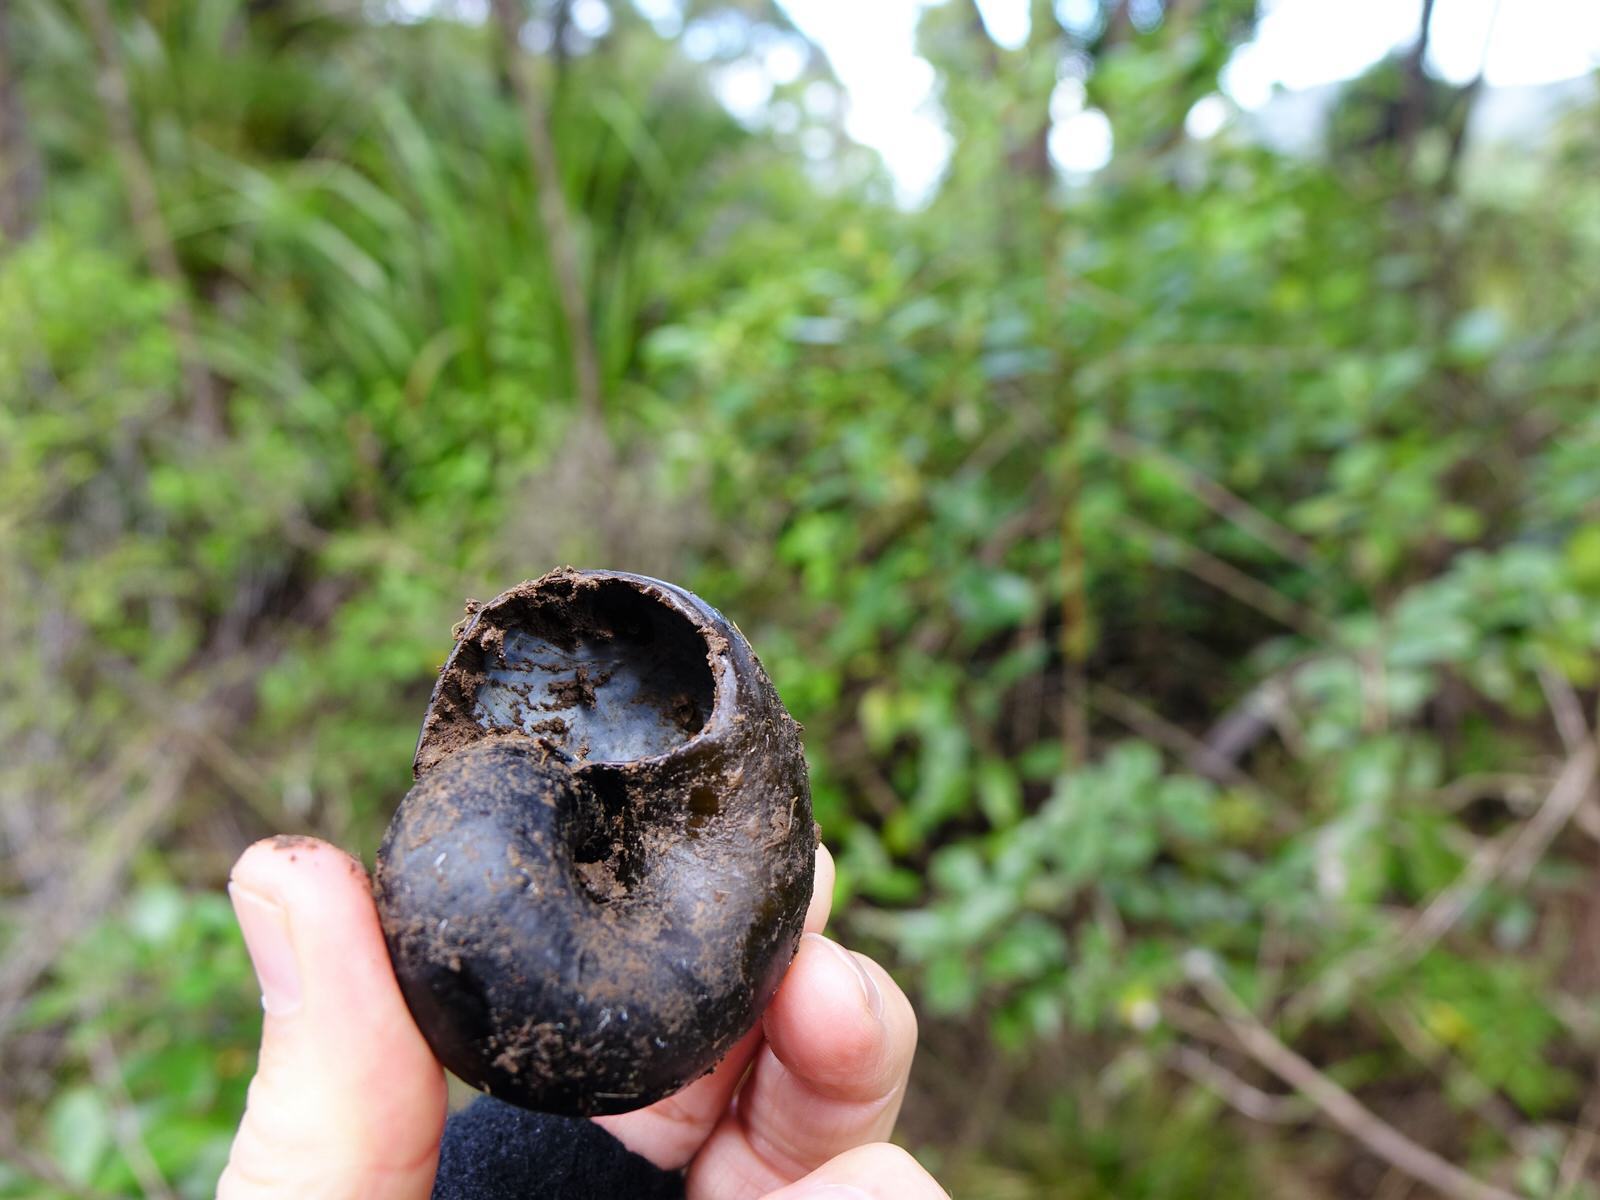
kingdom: Animalia
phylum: Mollusca
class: Gastropoda
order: Stylommatophora
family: Rhytididae
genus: Paryphanta
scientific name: Paryphanta busbyi
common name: Kauri snail
